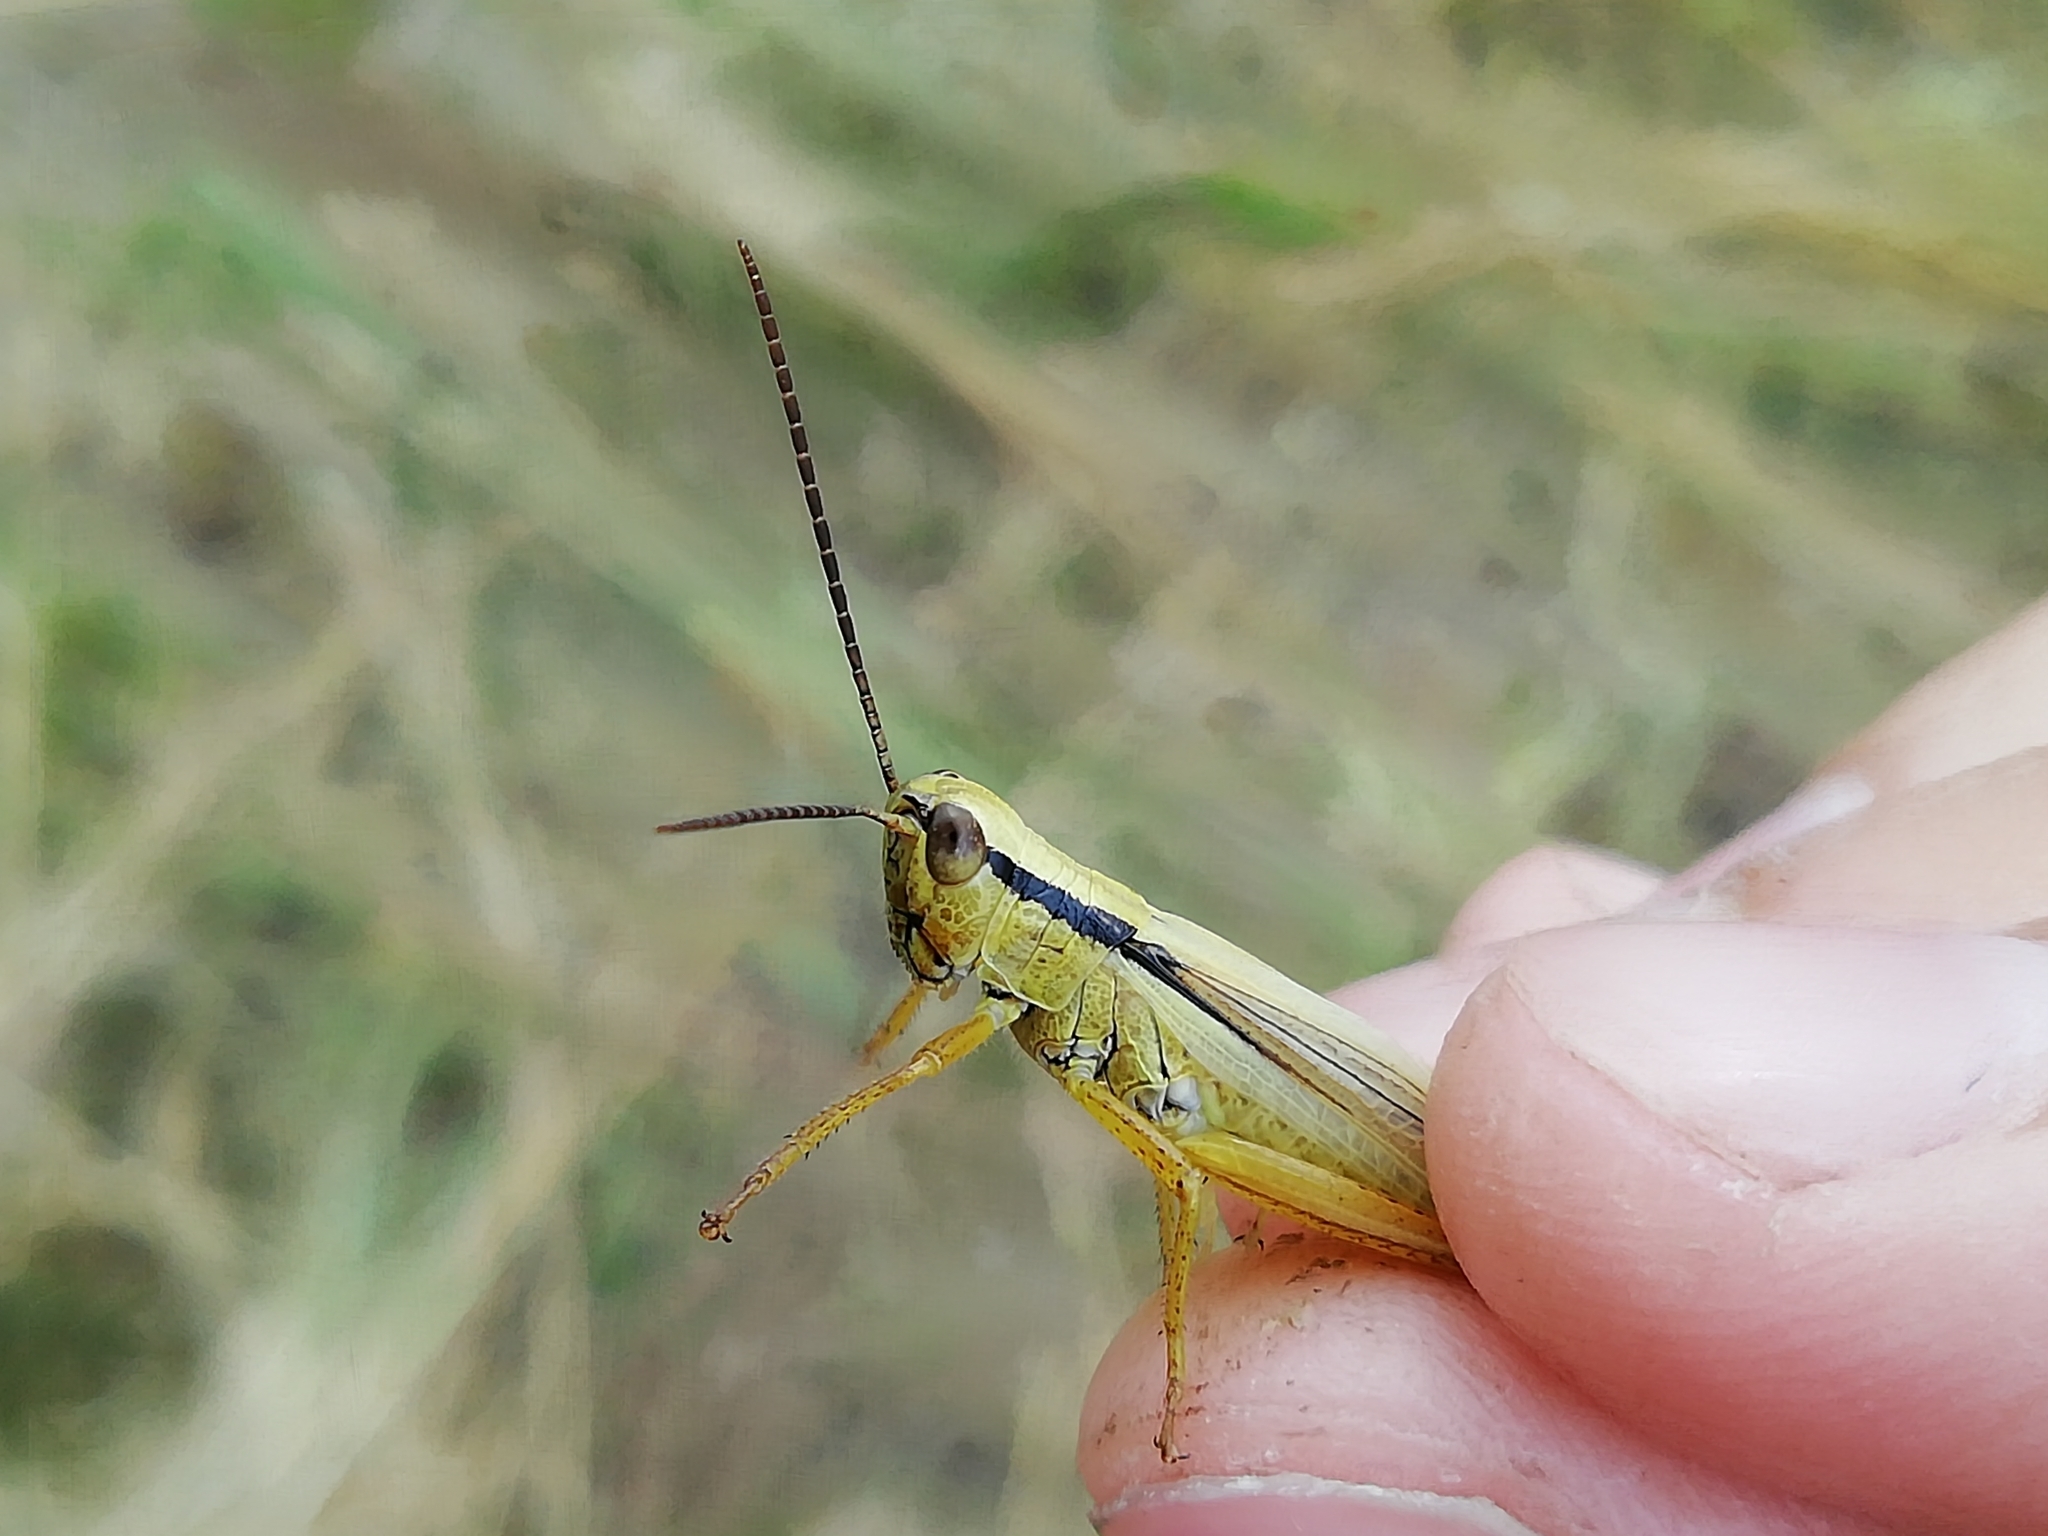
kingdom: Animalia
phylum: Arthropoda
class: Insecta
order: Orthoptera
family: Acrididae
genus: Mecostethus
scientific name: Mecostethus parapleurus
